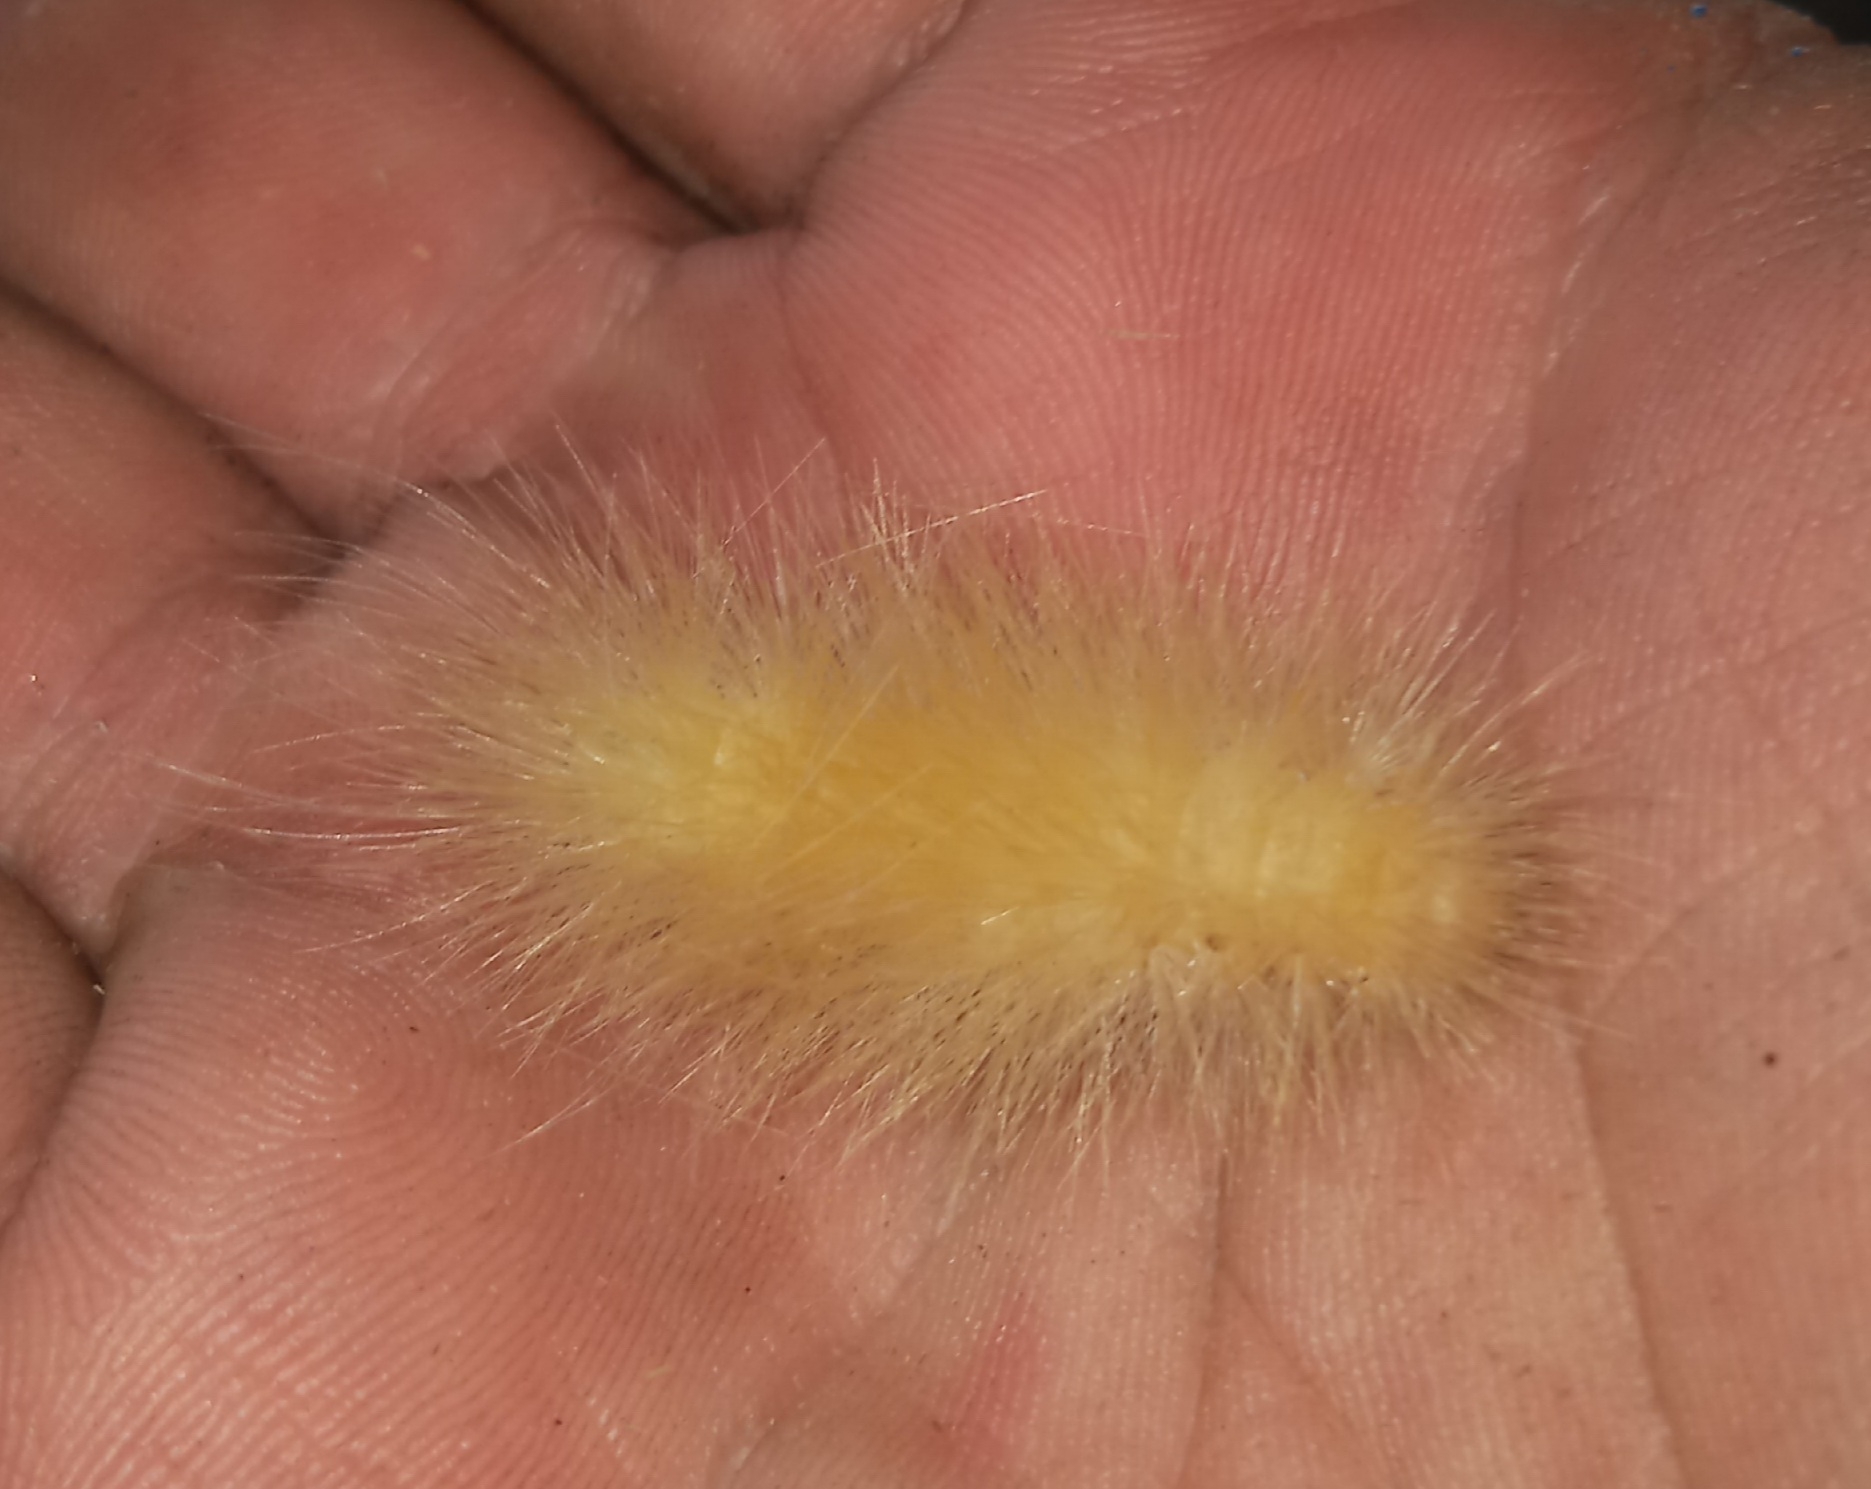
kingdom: Animalia
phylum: Arthropoda
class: Insecta
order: Lepidoptera
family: Erebidae
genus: Spilosoma
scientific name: Spilosoma virginica
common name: Virginia tiger moth
